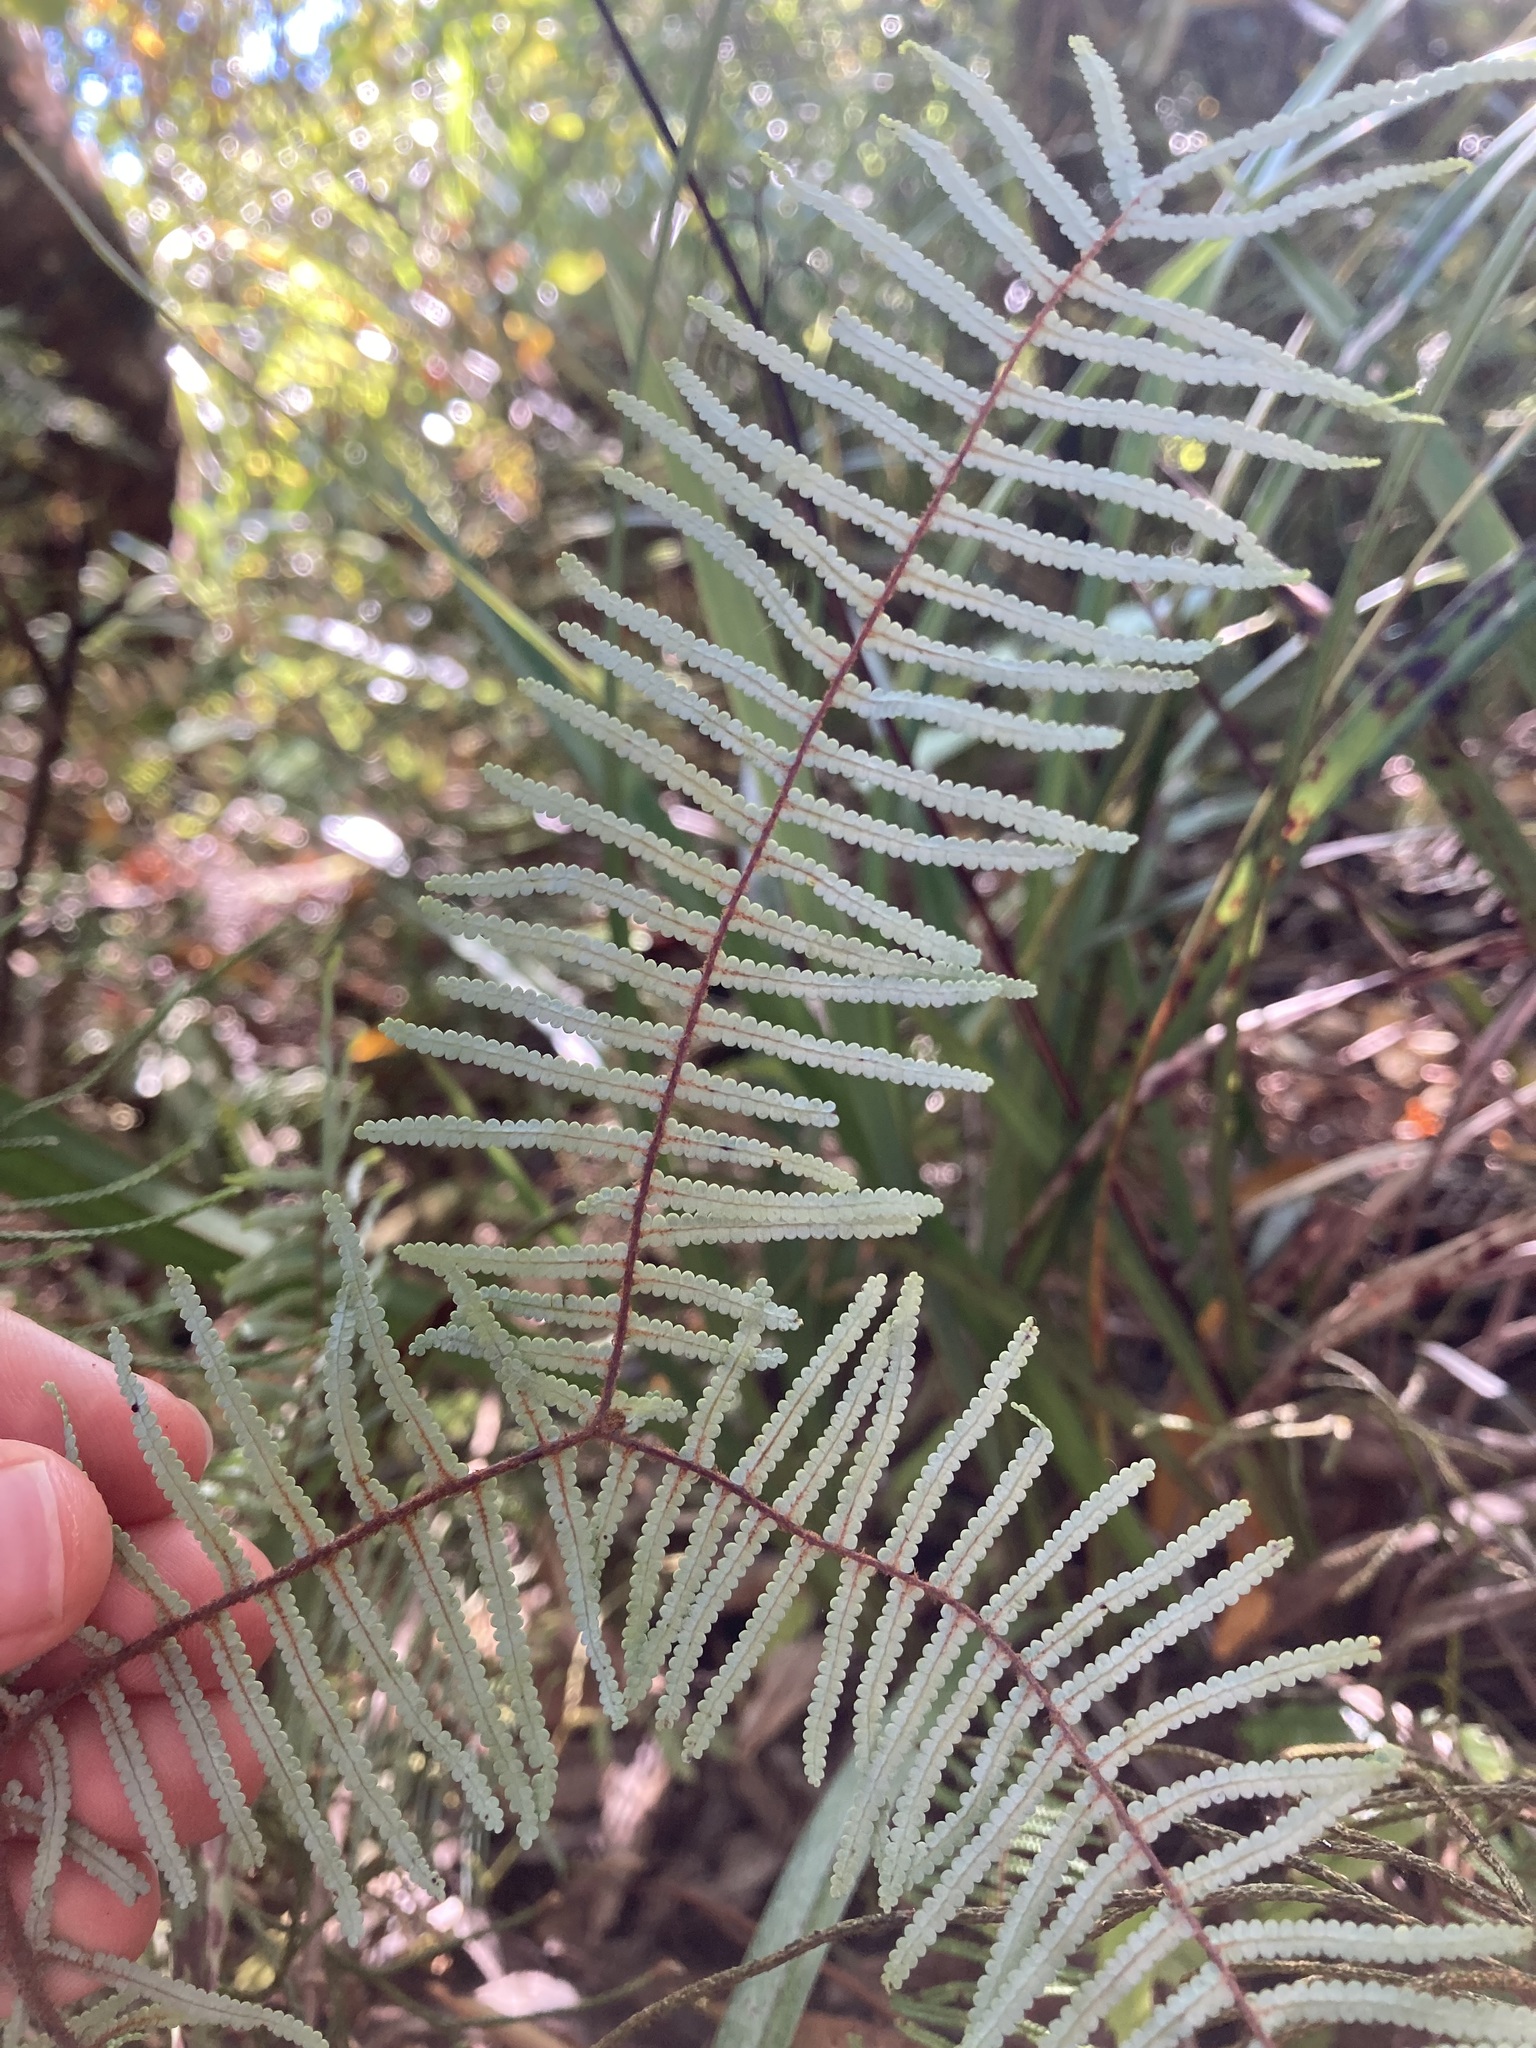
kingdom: Plantae
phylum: Tracheophyta
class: Polypodiopsida
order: Gleicheniales
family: Gleicheniaceae
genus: Gleichenia
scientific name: Gleichenia dicarpa
